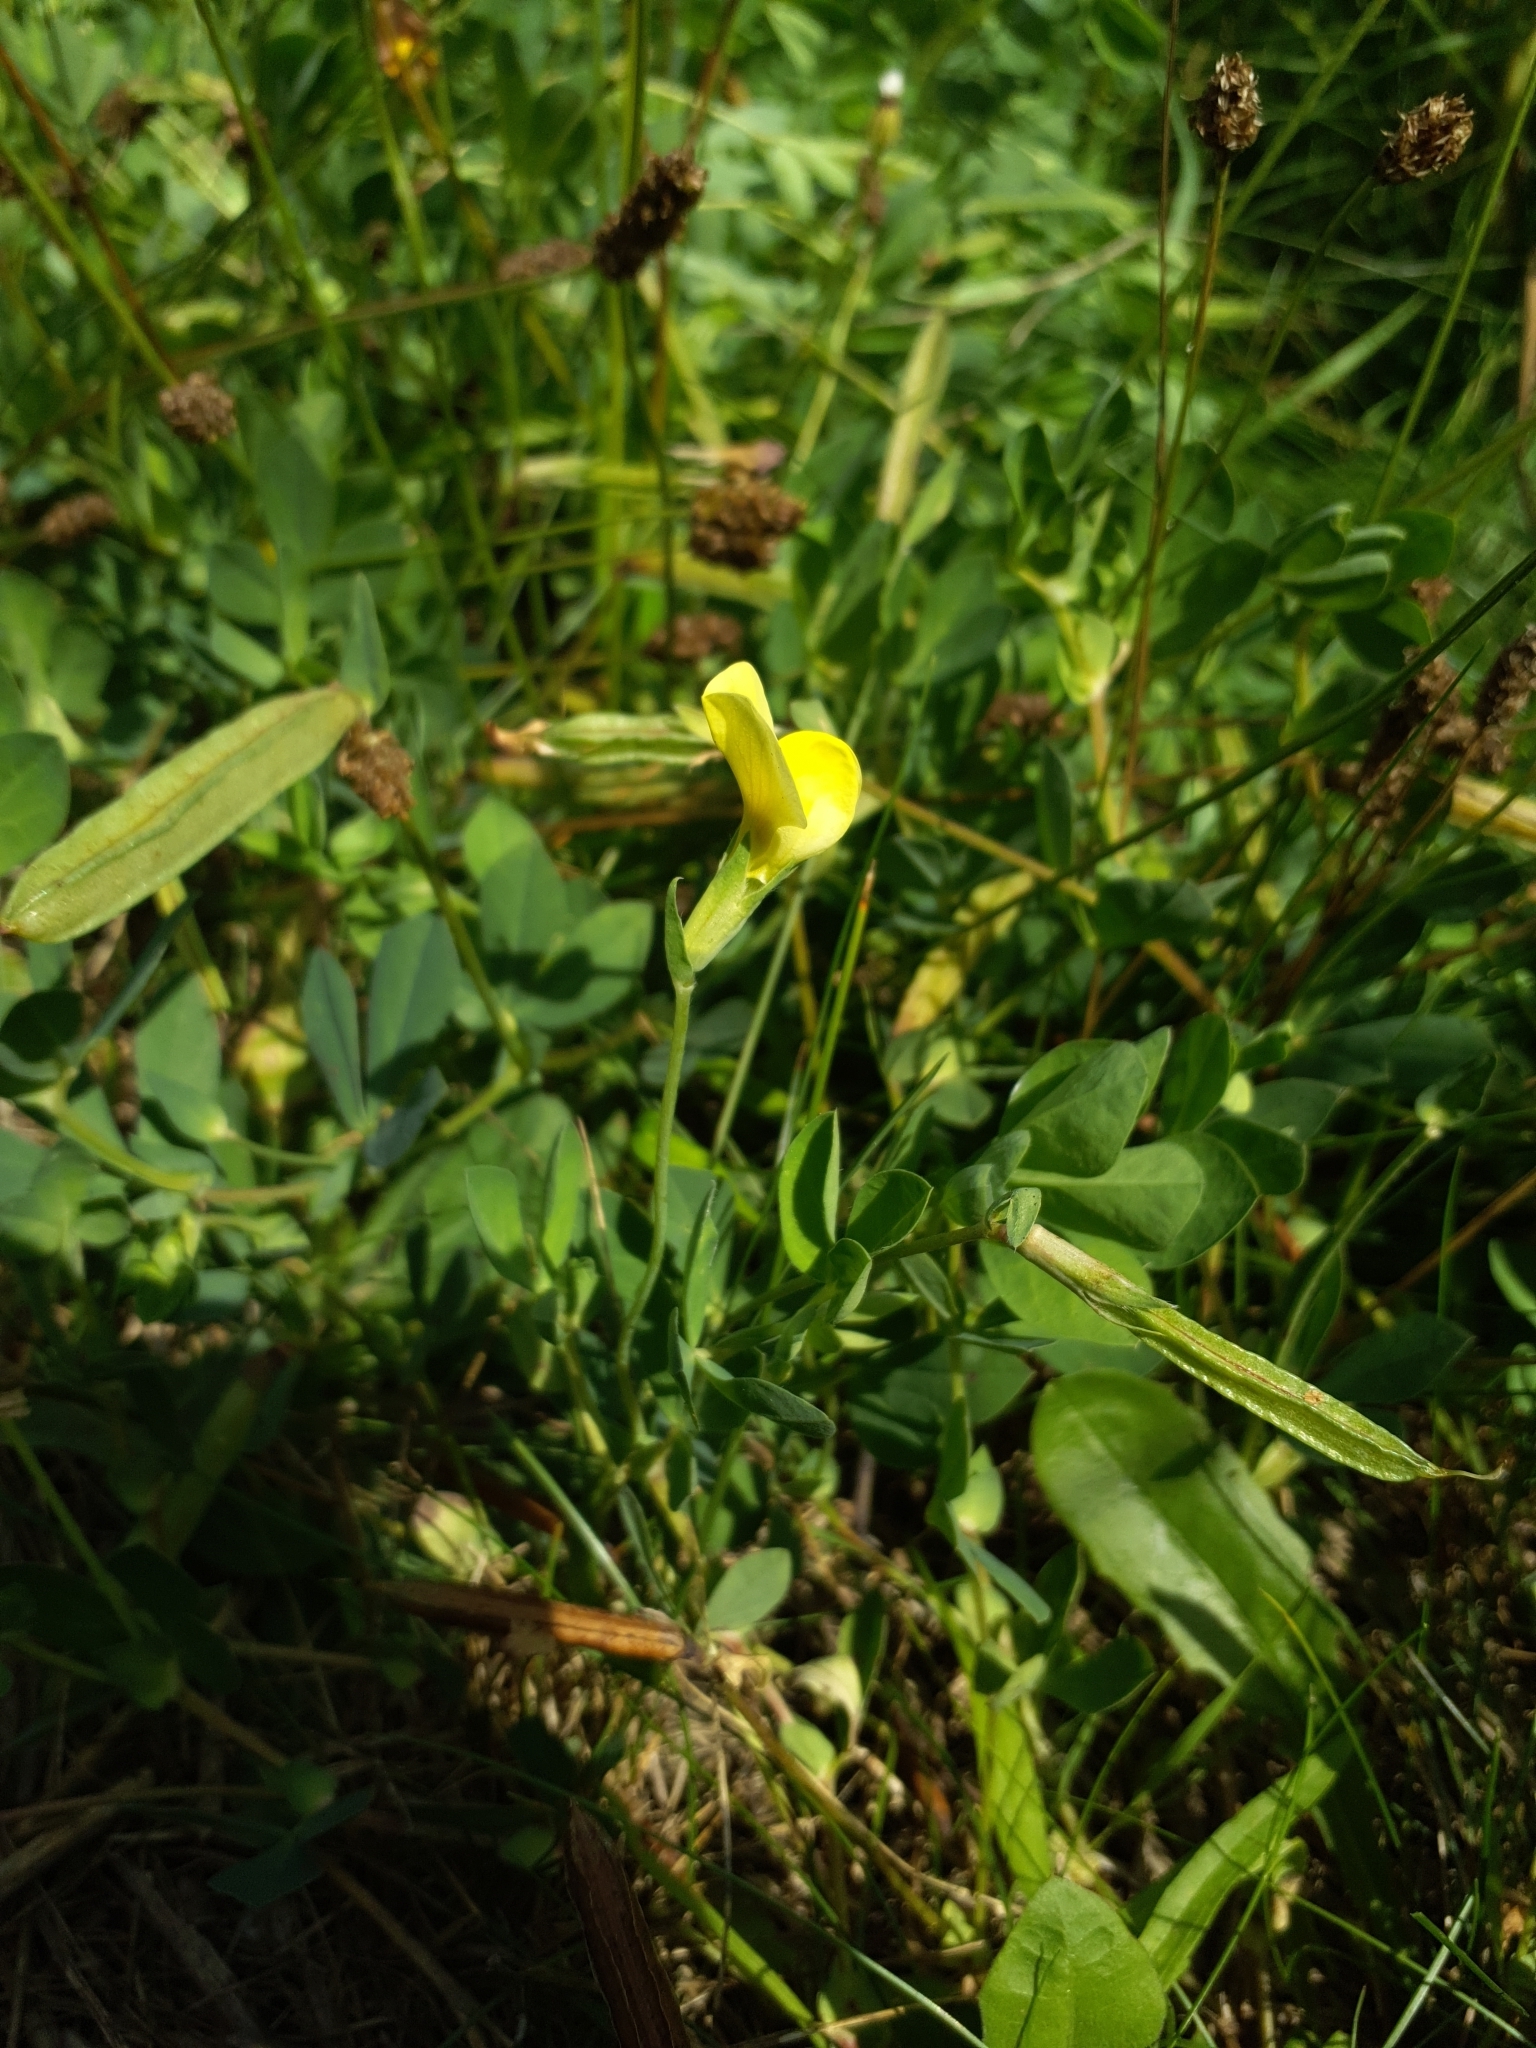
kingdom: Plantae
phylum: Tracheophyta
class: Magnoliopsida
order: Fabales
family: Fabaceae
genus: Lotus
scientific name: Lotus maritimus
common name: Dragon's-teeth
